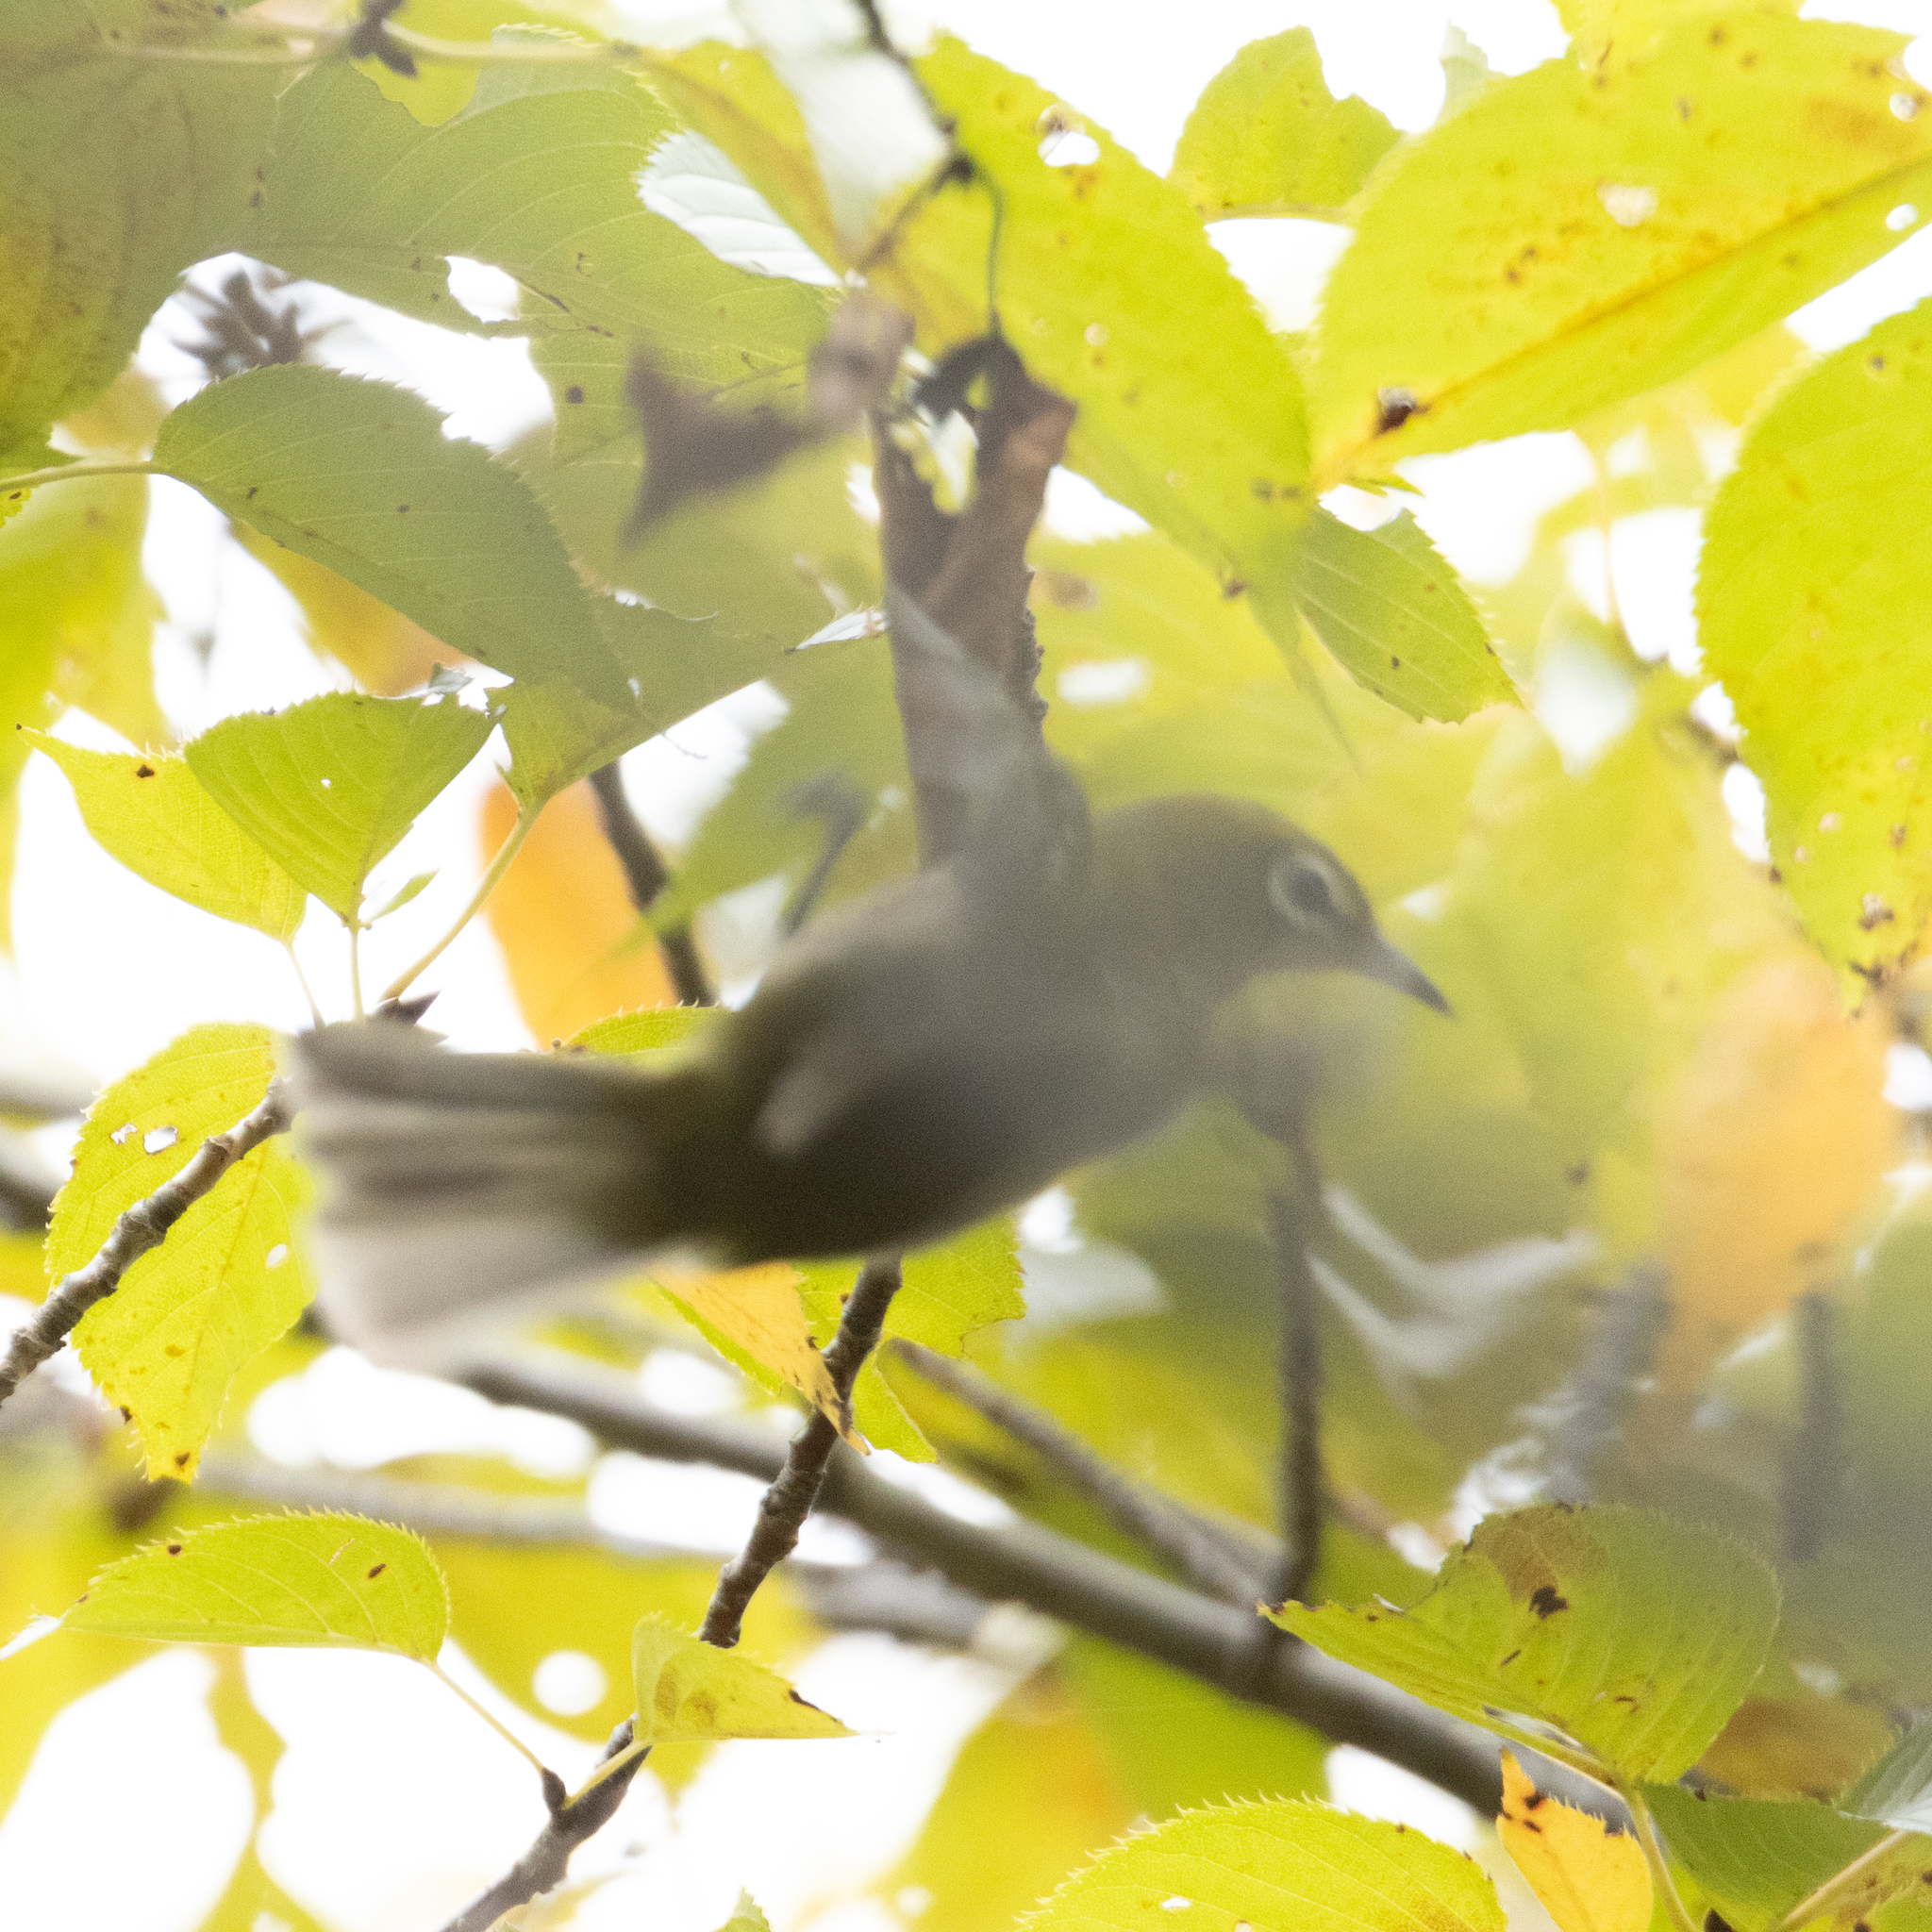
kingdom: Animalia
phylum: Chordata
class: Aves
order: Passeriformes
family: Zosteropidae
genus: Zosterops
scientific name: Zosterops japonicus
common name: Japanese white-eye
